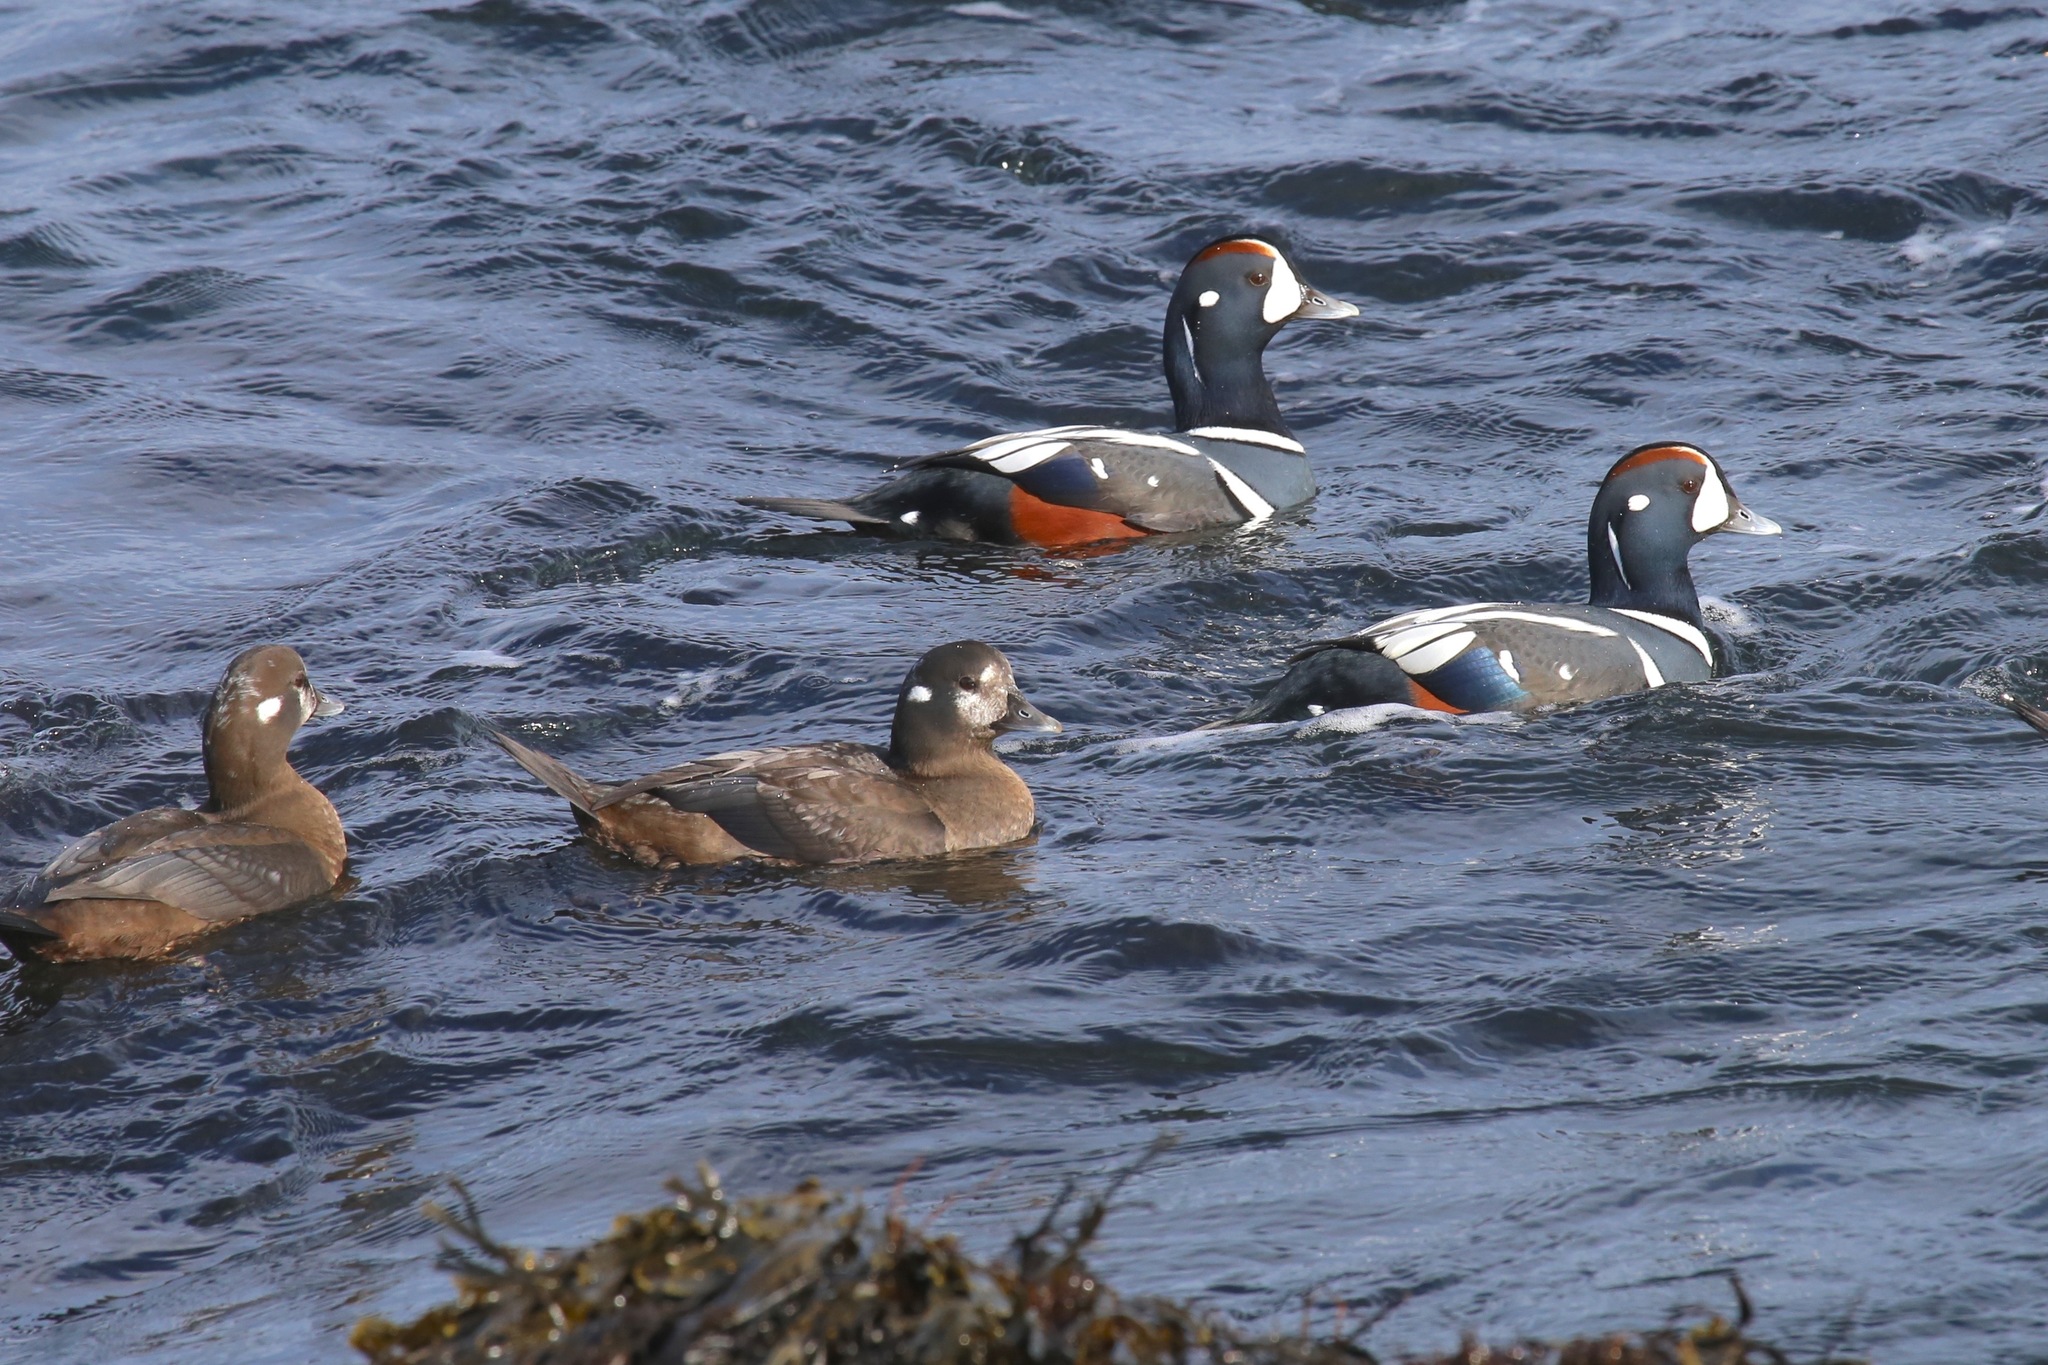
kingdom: Animalia
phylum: Chordata
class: Aves
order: Anseriformes
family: Anatidae
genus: Histrionicus
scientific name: Histrionicus histrionicus
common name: Harlequin duck
